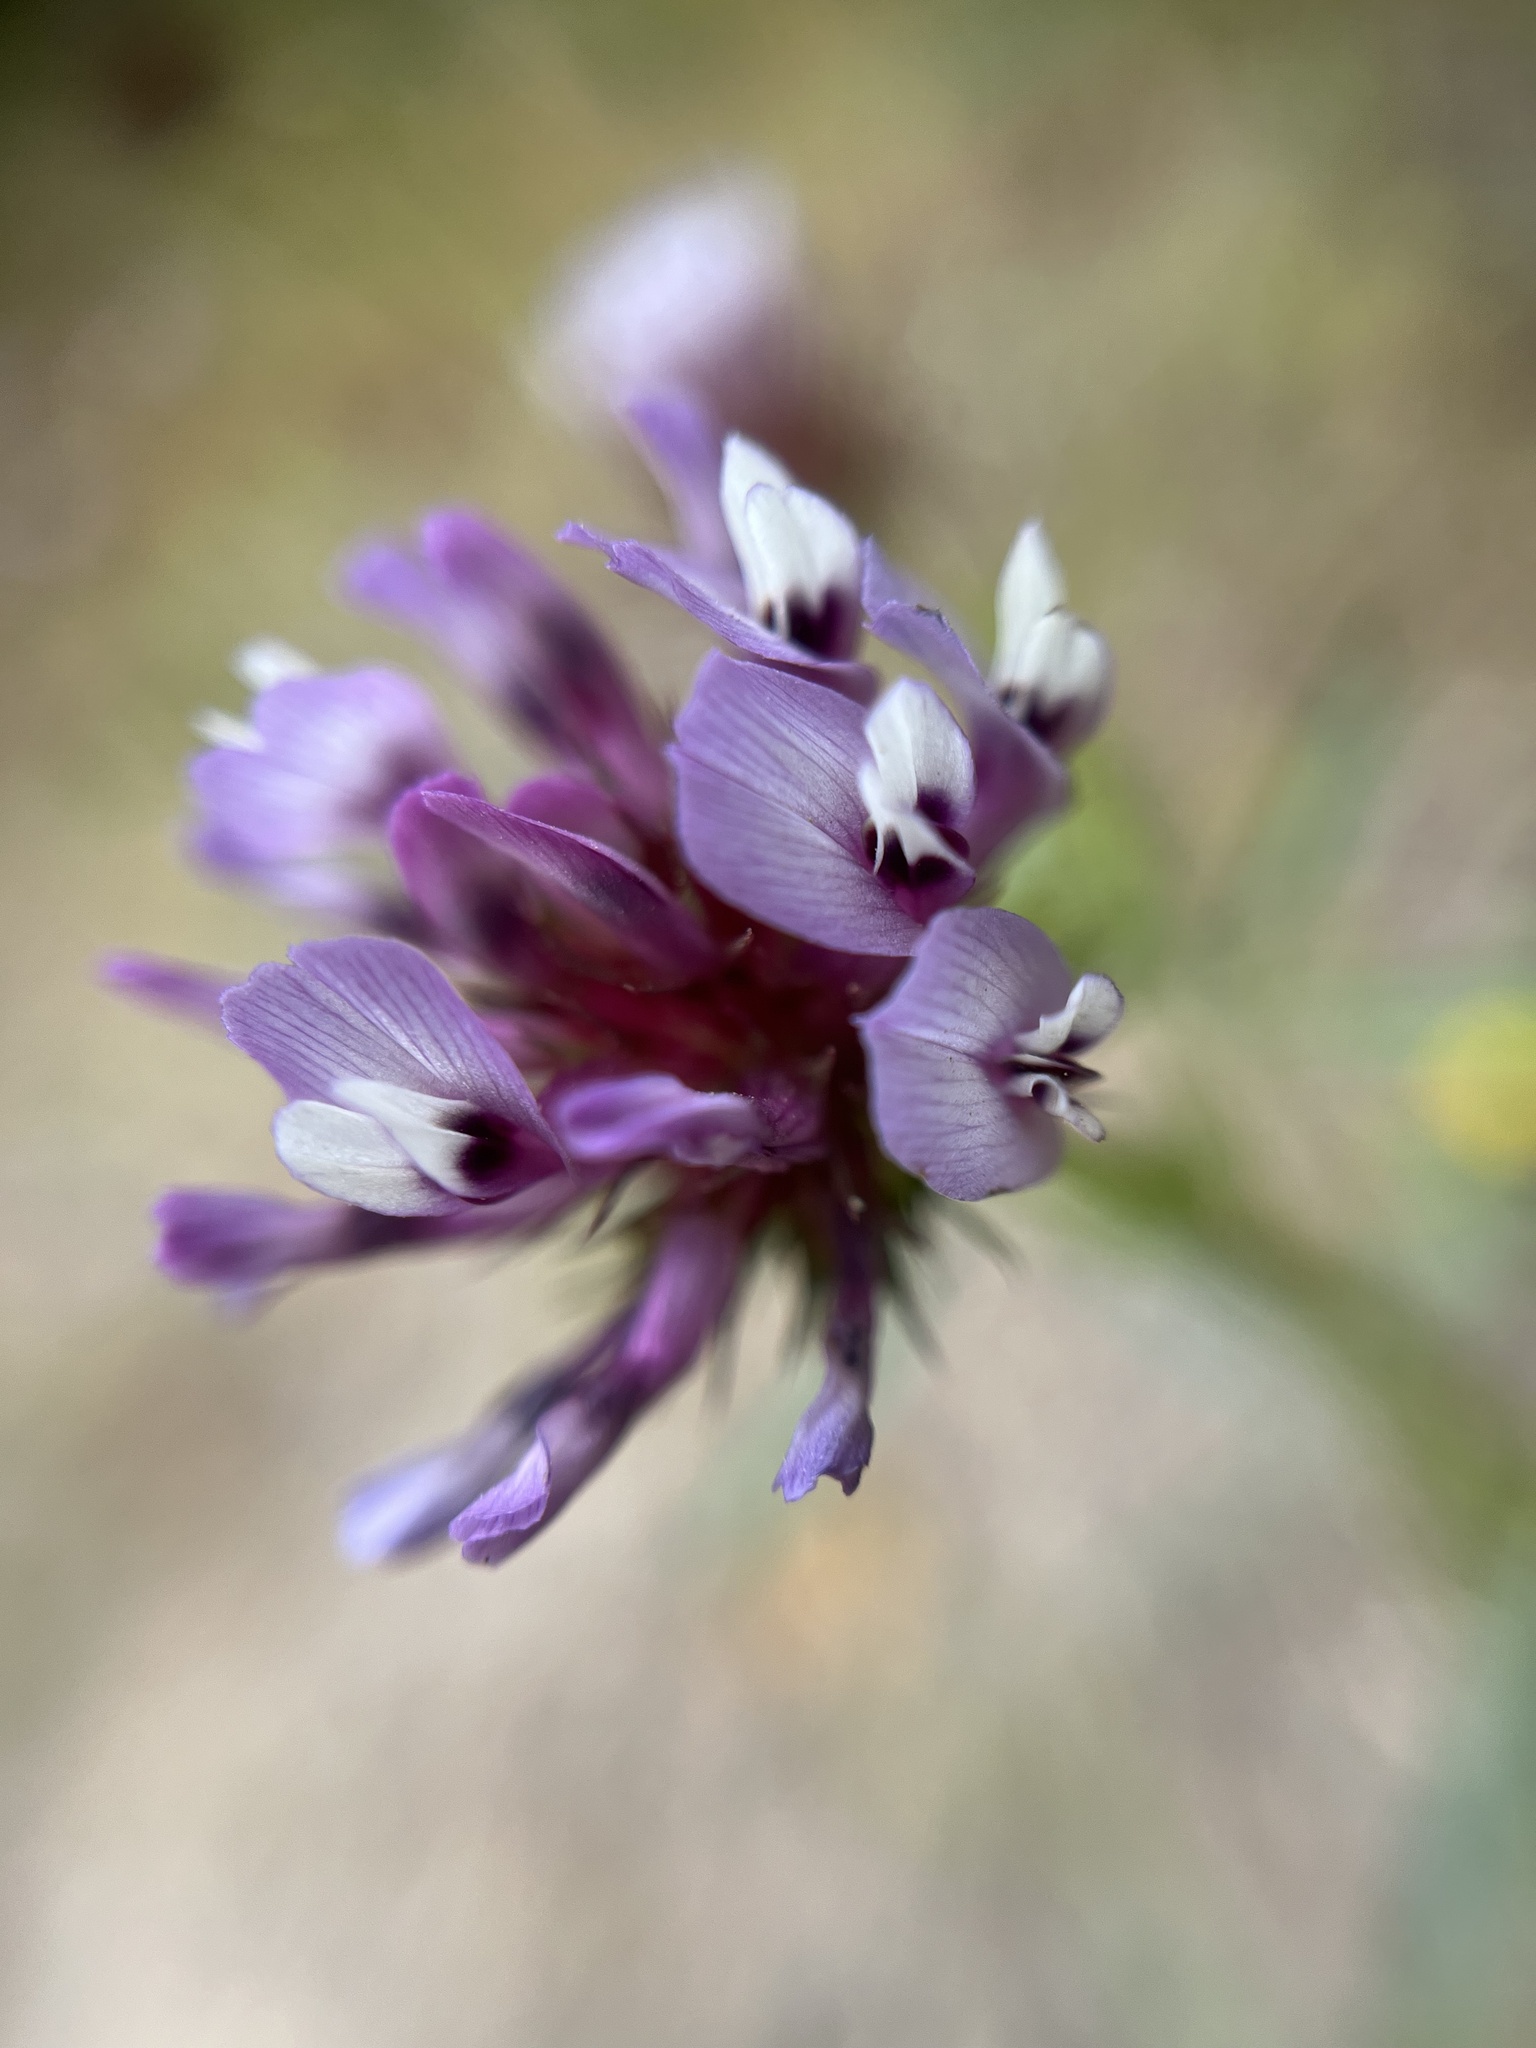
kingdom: Plantae
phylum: Tracheophyta
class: Magnoliopsida
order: Fabales
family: Fabaceae
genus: Trifolium
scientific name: Trifolium willdenovii
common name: Tomcat clover
